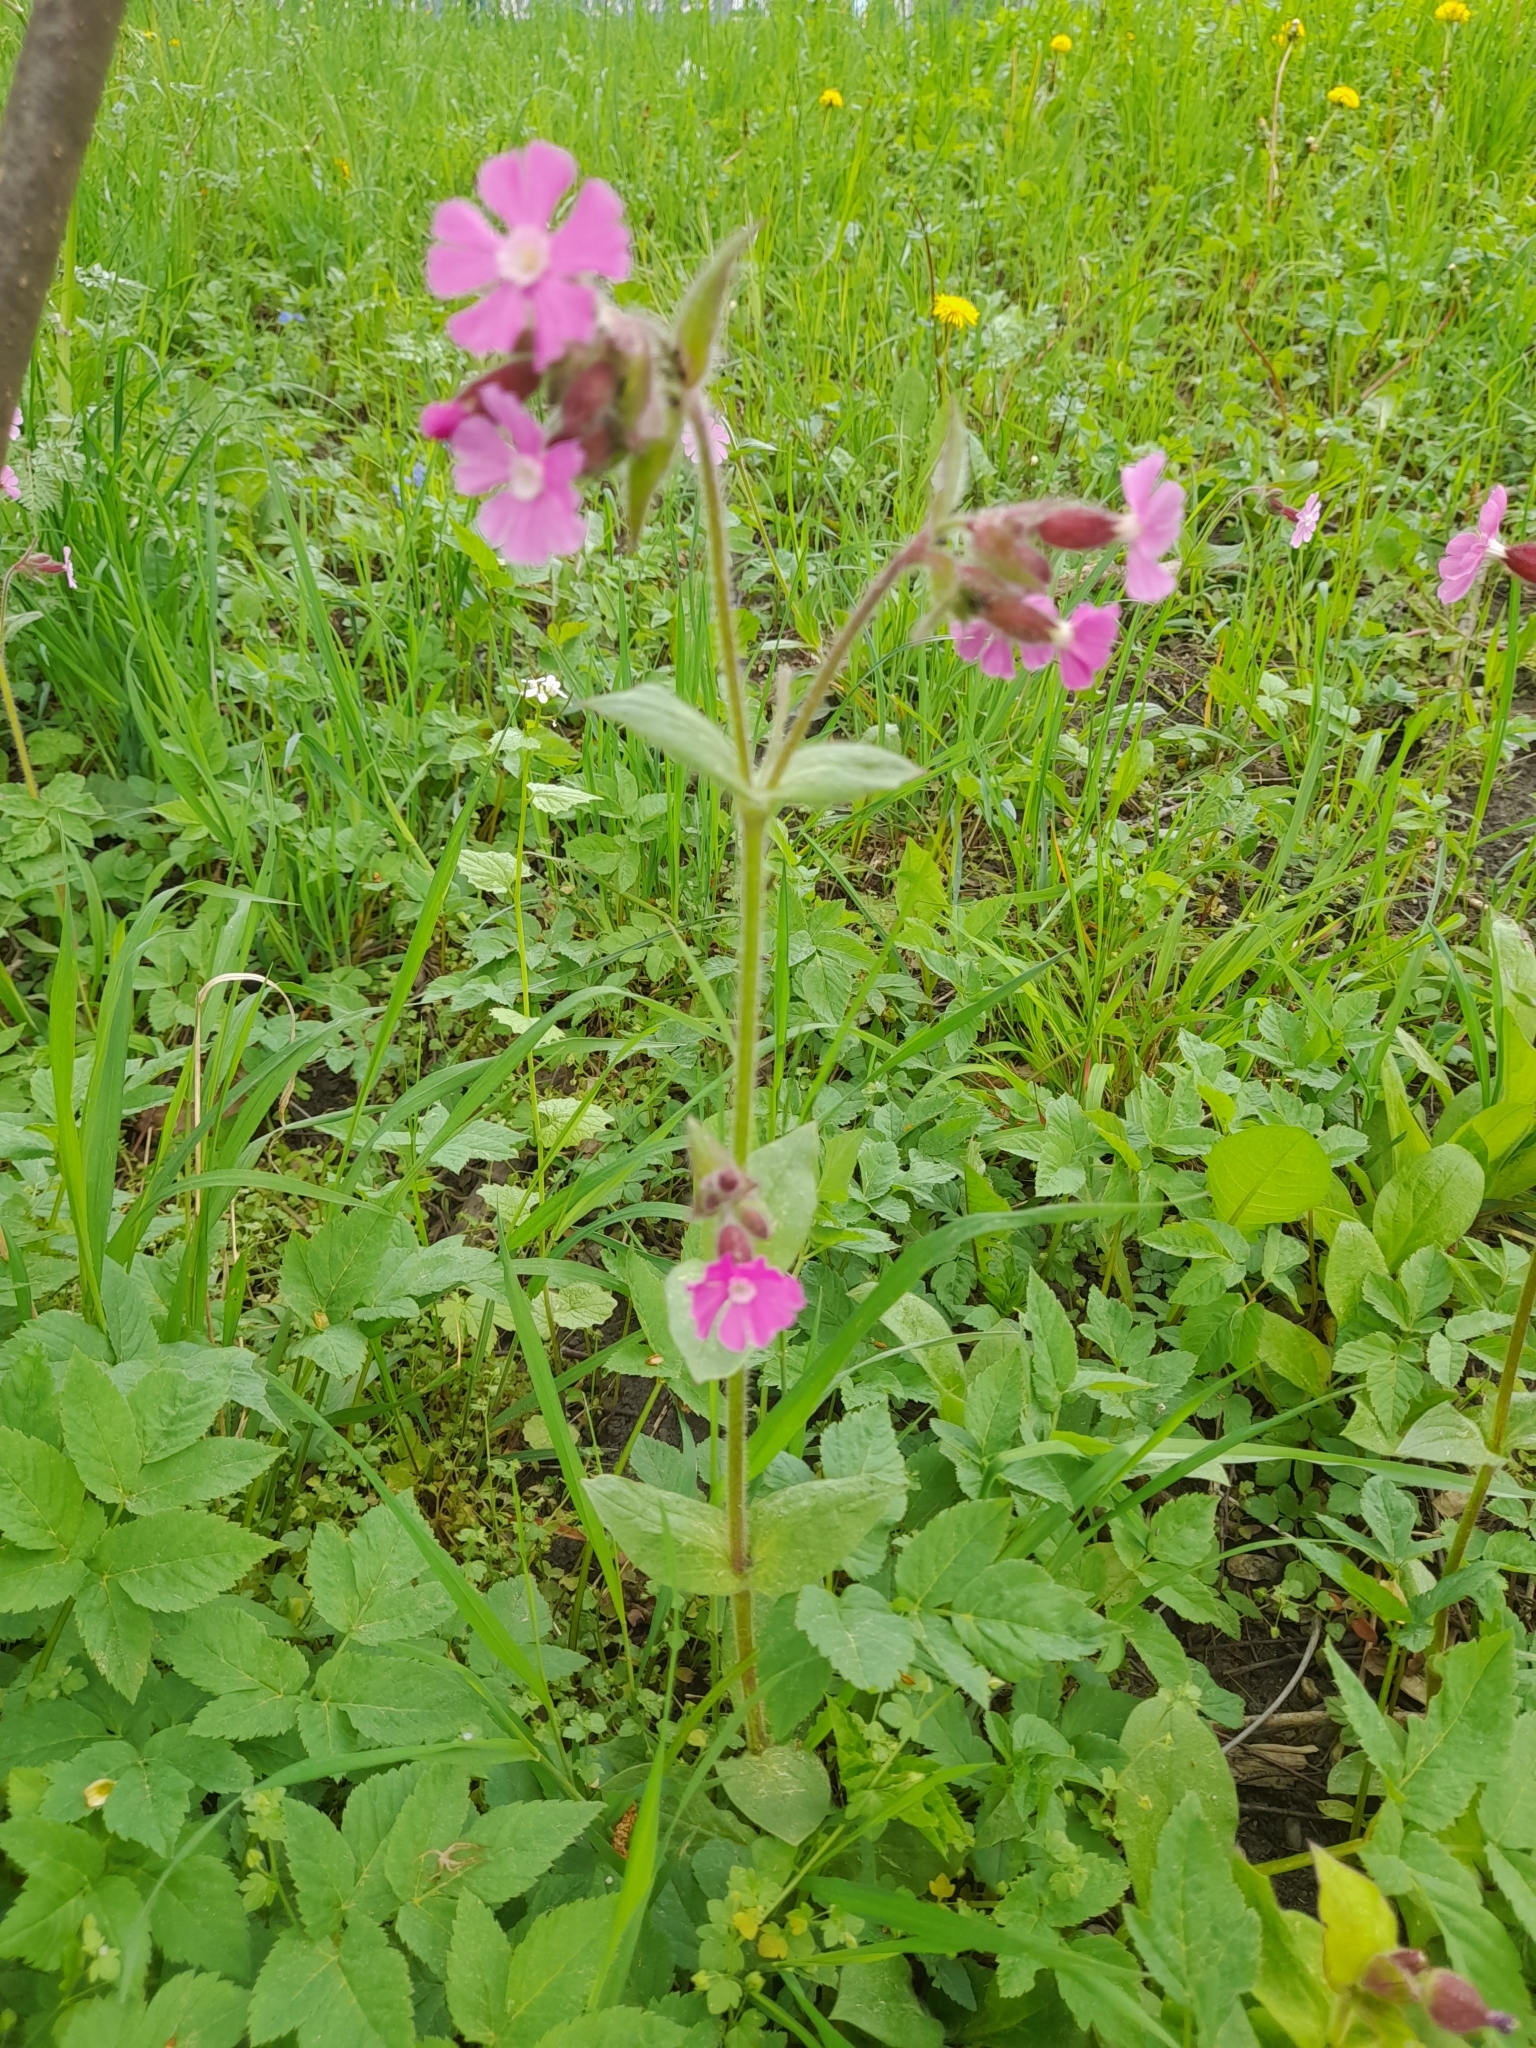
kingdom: Plantae
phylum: Tracheophyta
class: Magnoliopsida
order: Caryophyllales
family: Caryophyllaceae
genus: Silene
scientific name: Silene dioica
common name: Red campion
